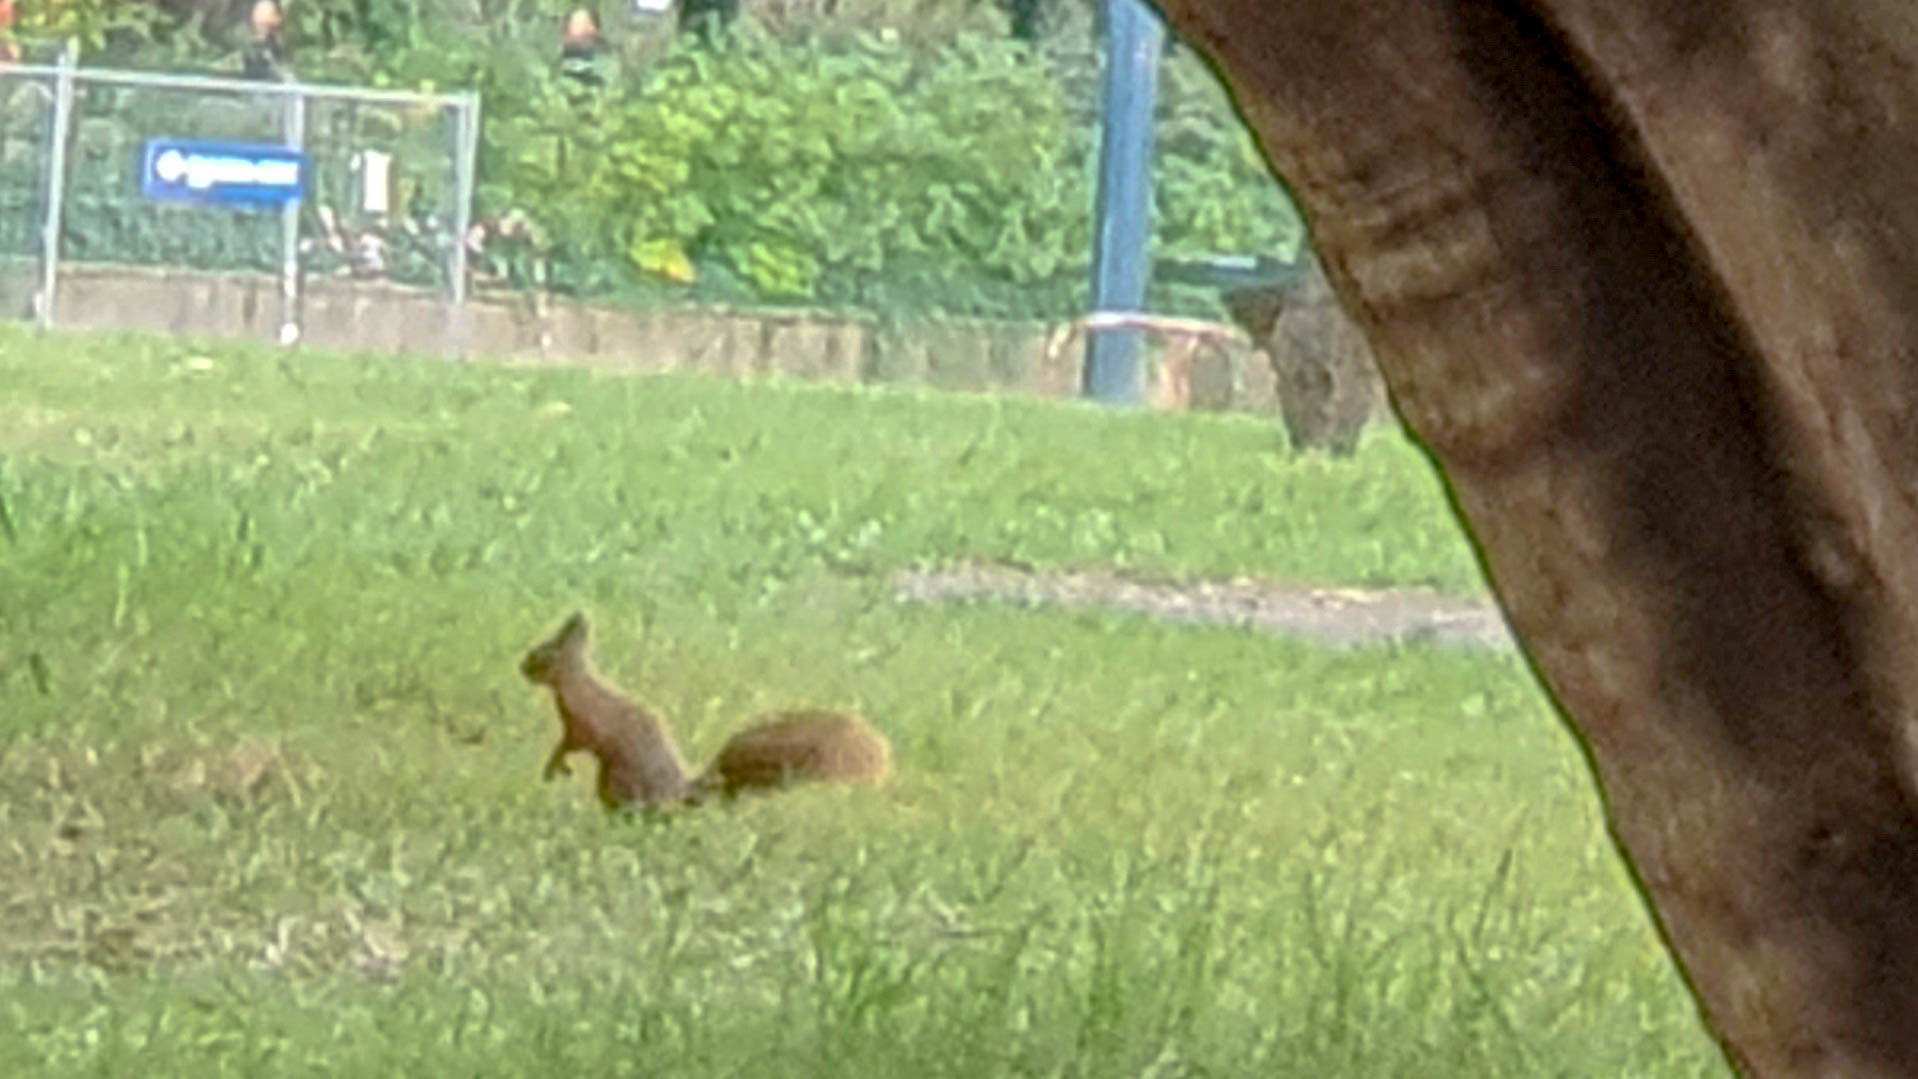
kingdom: Animalia
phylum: Chordata
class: Mammalia
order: Rodentia
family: Sciuridae
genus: Sciurus
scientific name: Sciurus vulgaris
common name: Eurasian red squirrel
